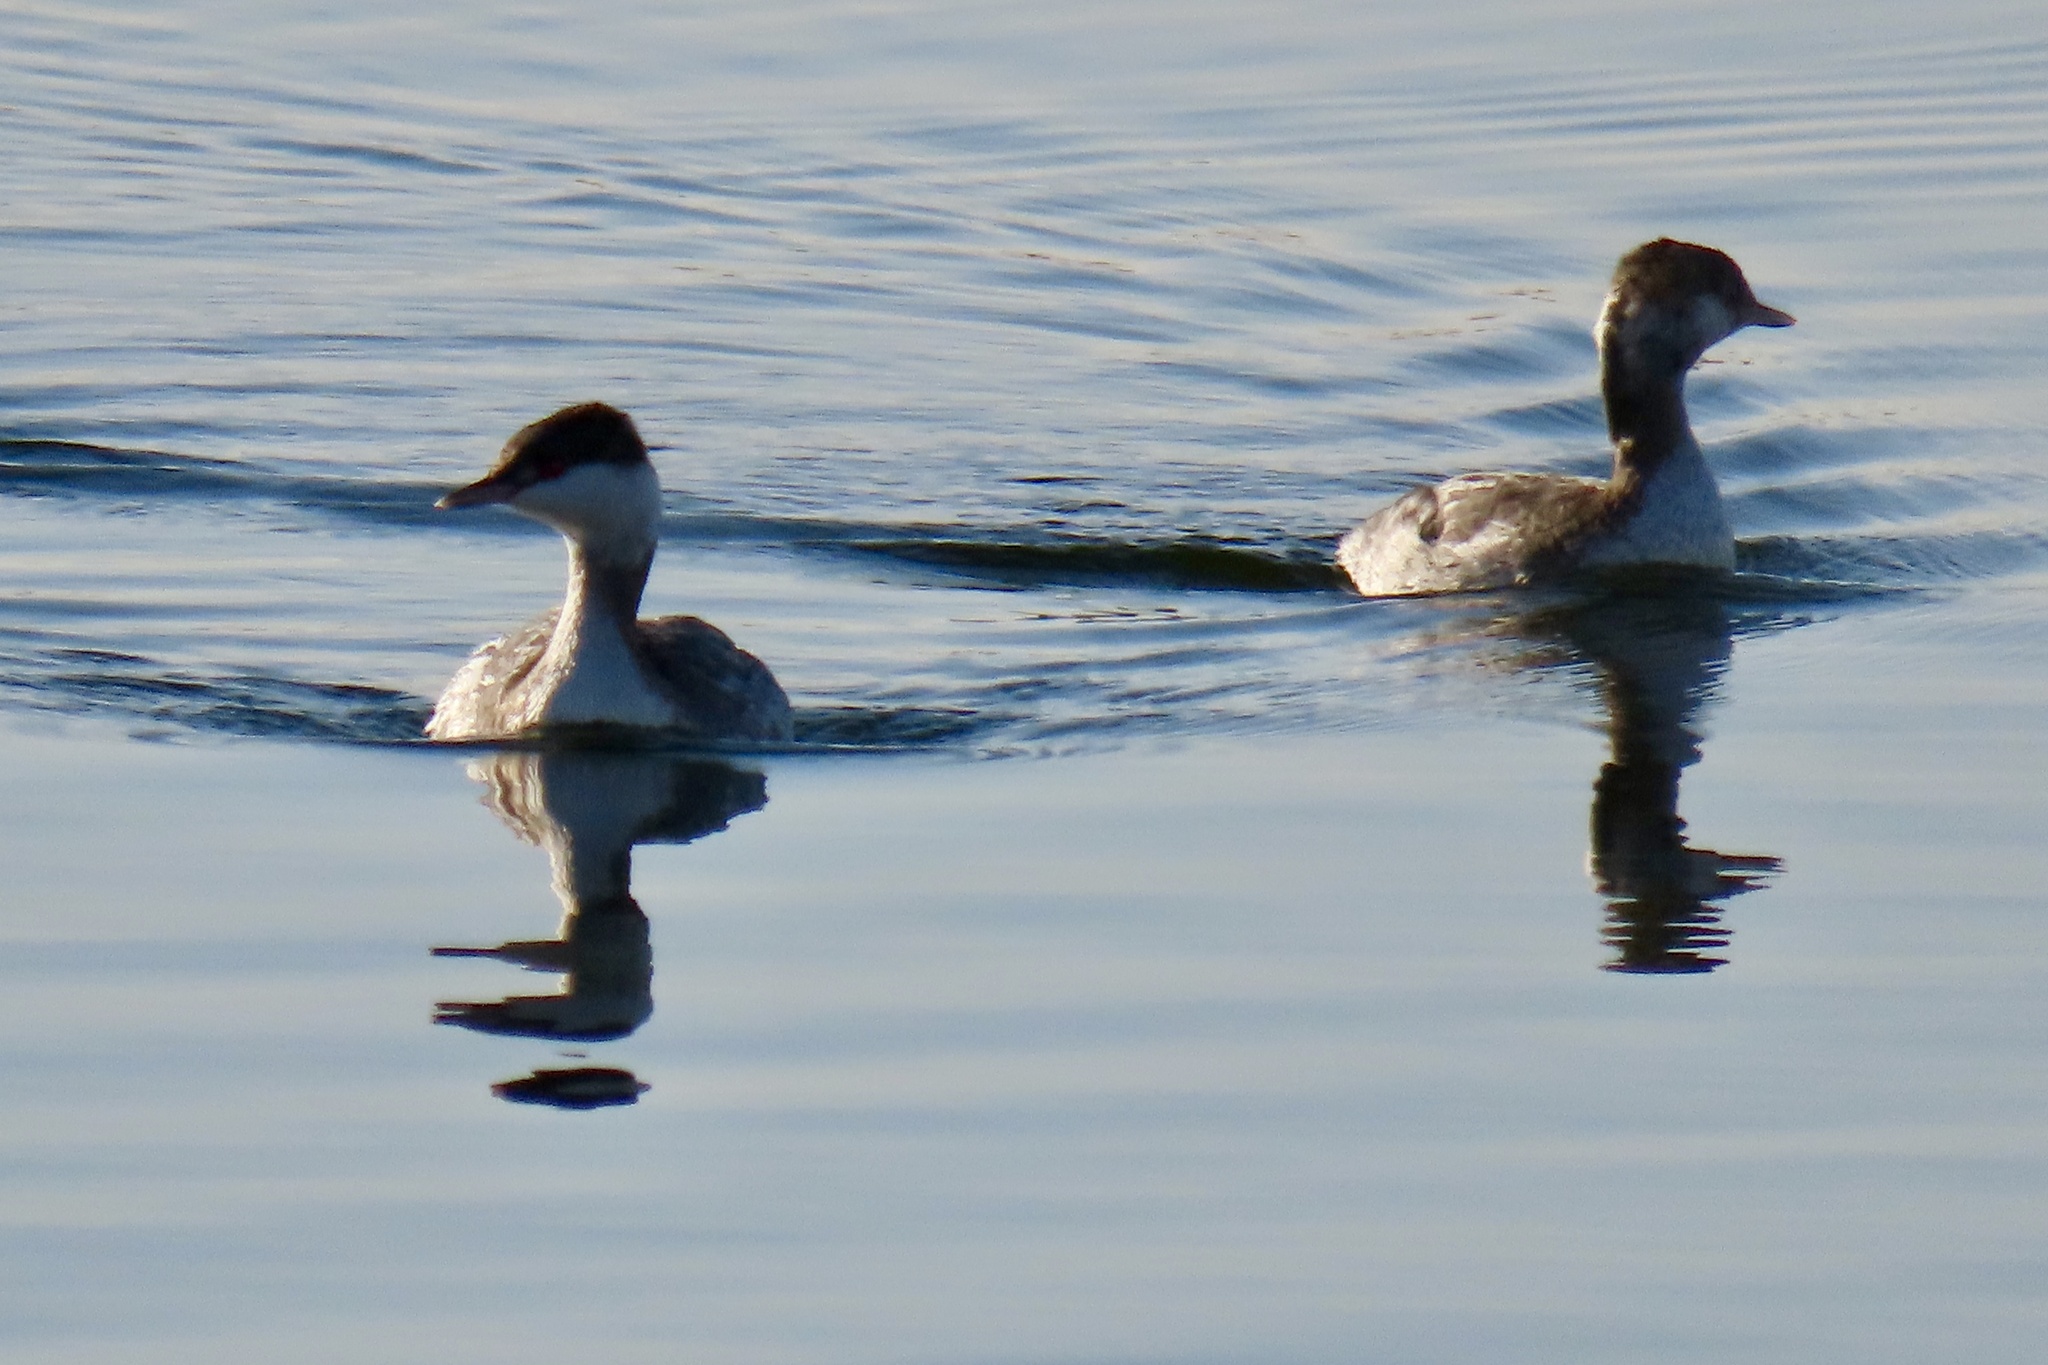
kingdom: Animalia
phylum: Chordata
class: Aves
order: Podicipediformes
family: Podicipedidae
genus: Podiceps
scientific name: Podiceps auritus
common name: Horned grebe
